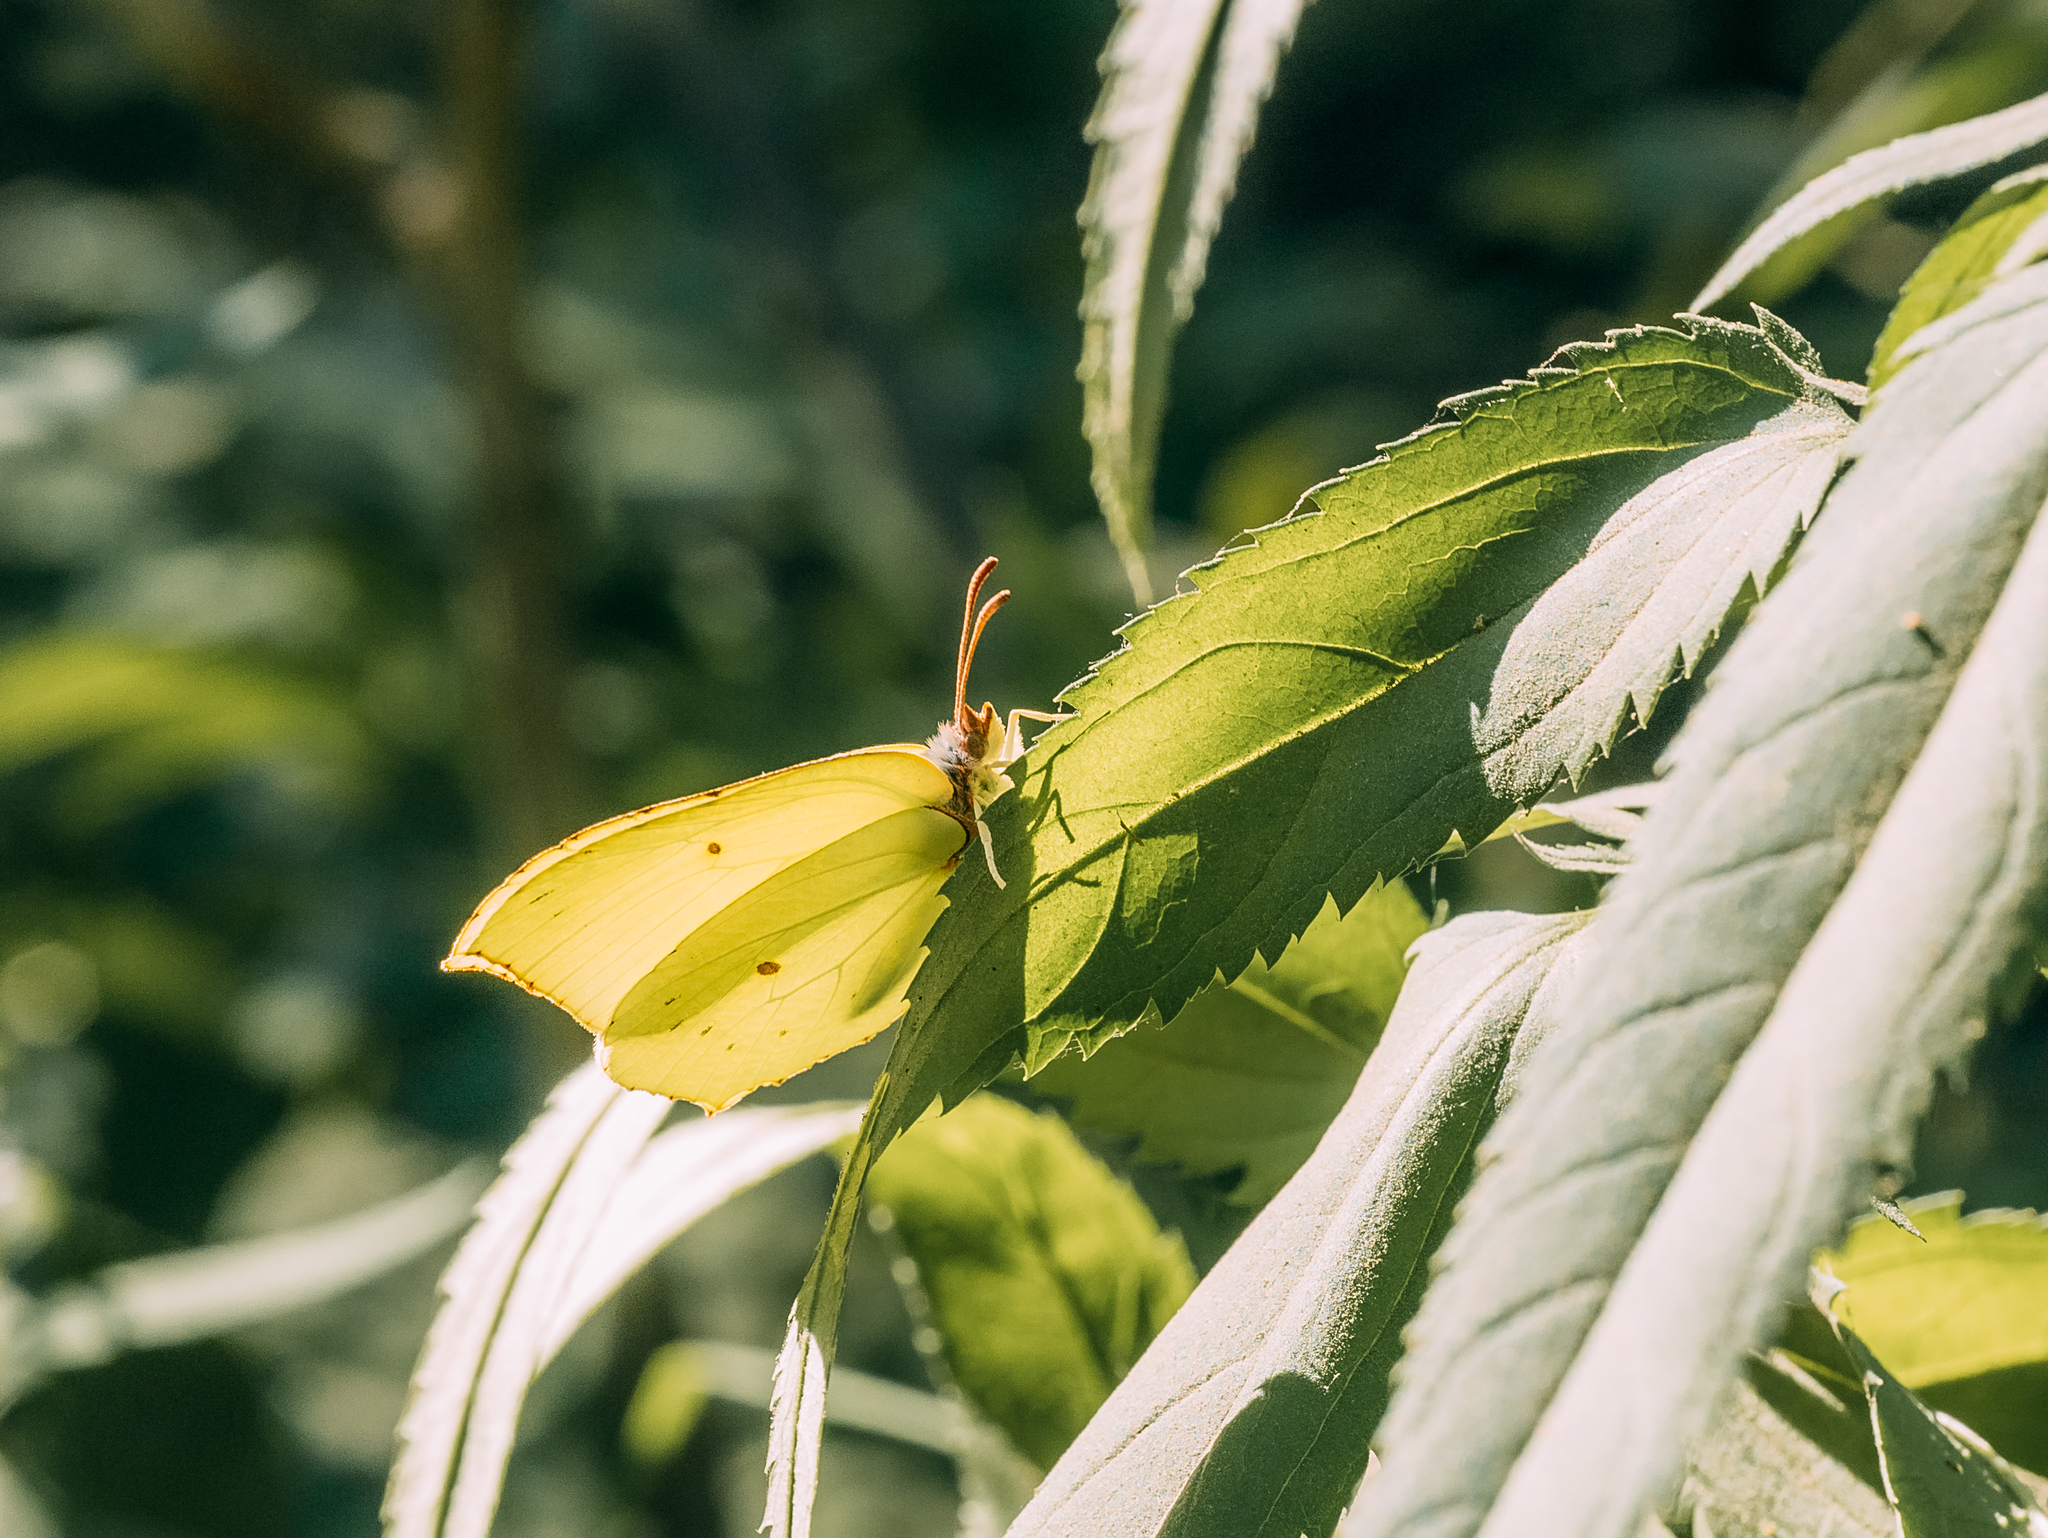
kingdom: Animalia
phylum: Arthropoda
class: Insecta
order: Lepidoptera
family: Pieridae
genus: Gonepteryx
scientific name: Gonepteryx rhamni
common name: Brimstone
